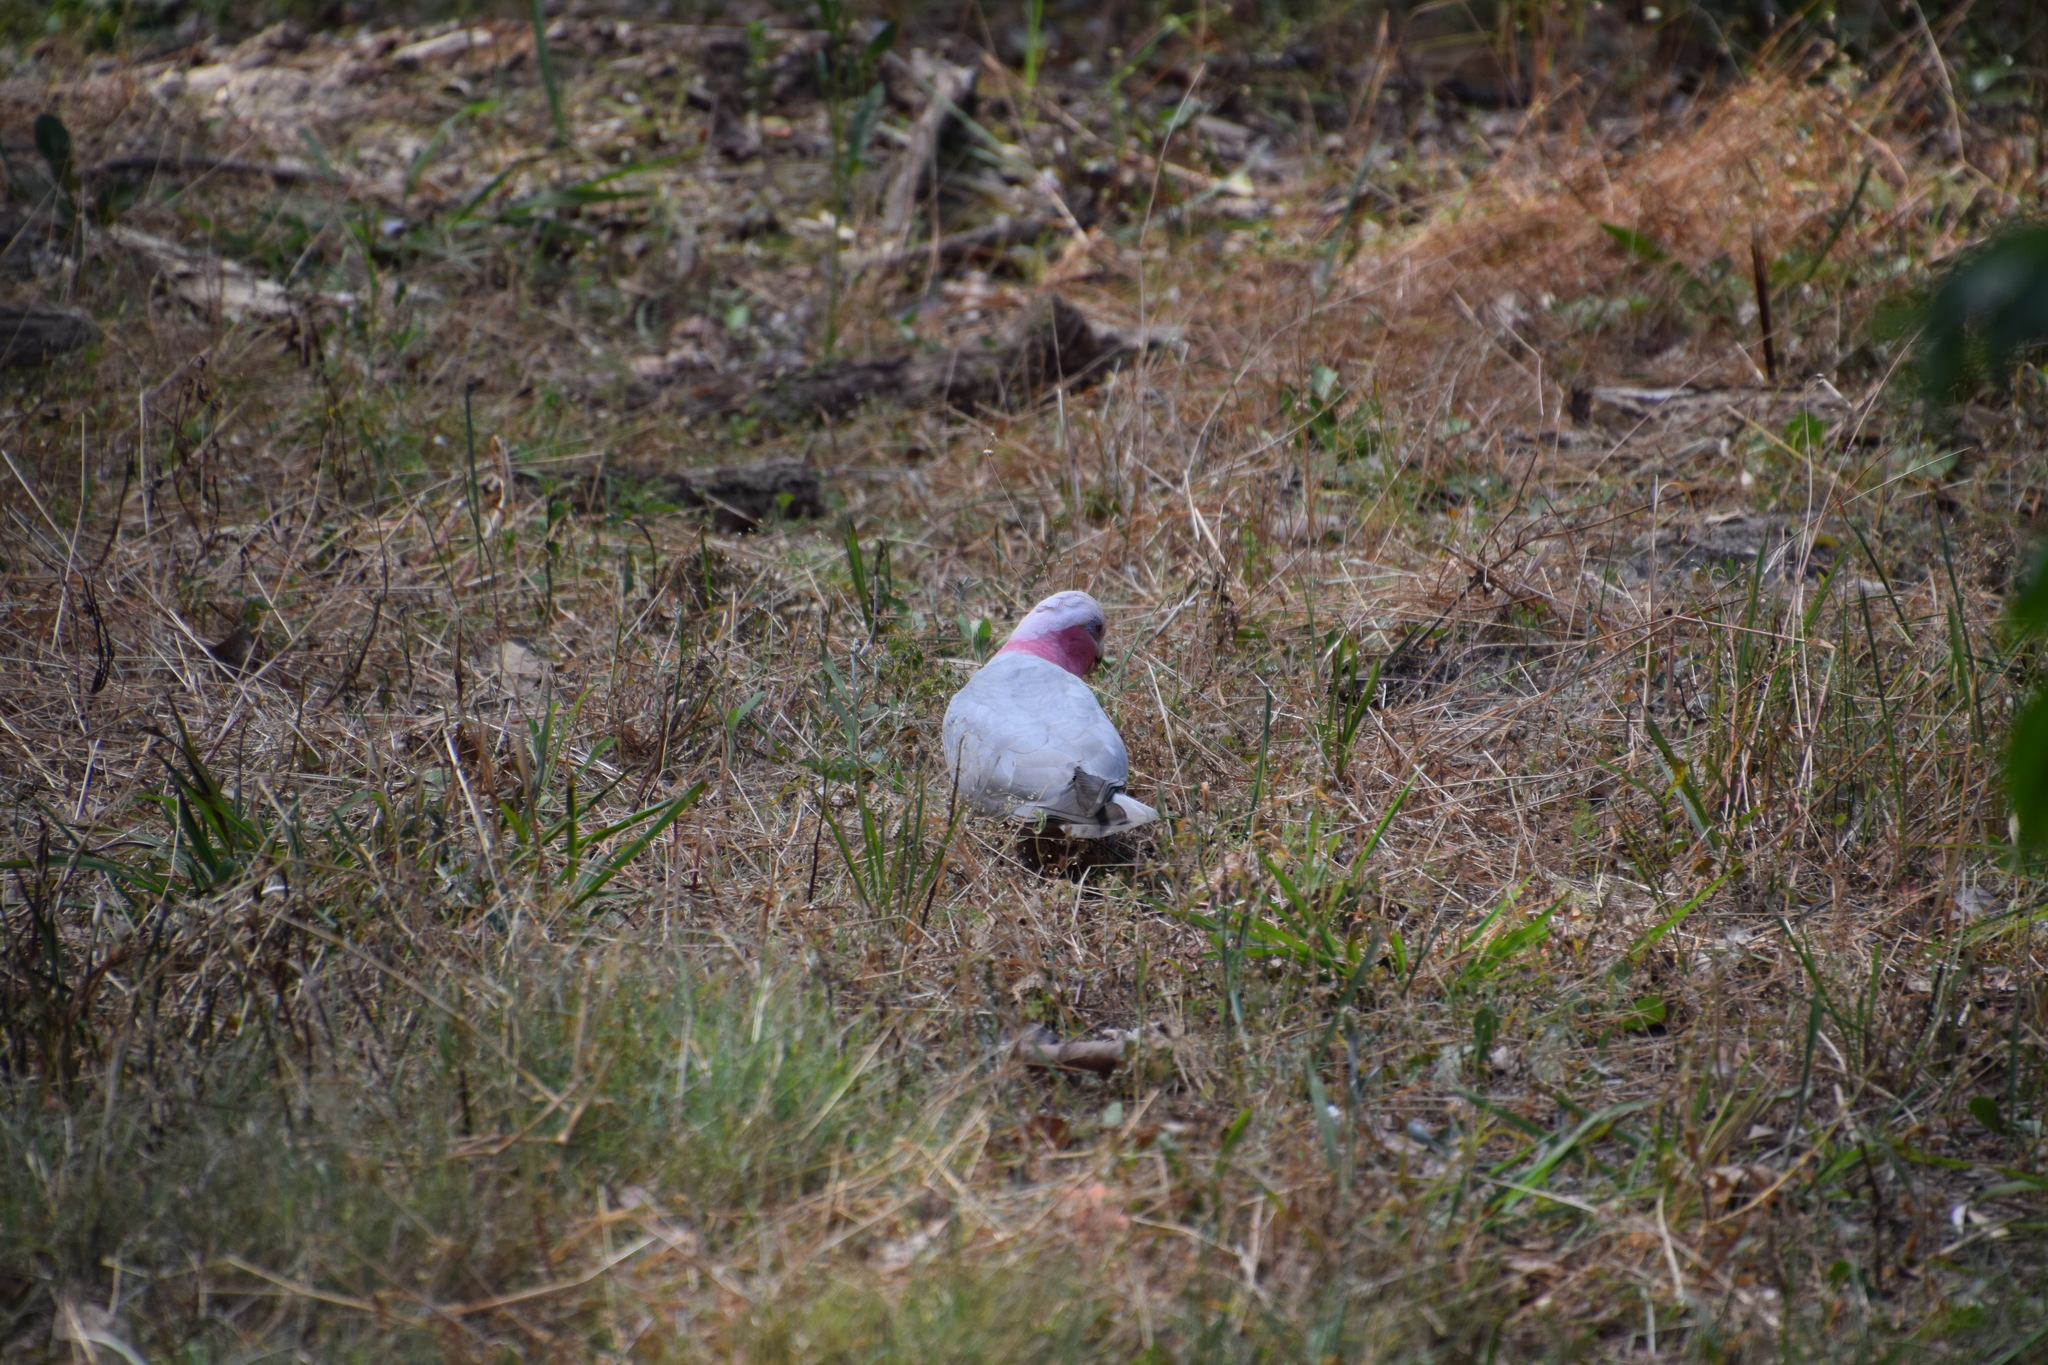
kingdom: Animalia
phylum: Chordata
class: Aves
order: Psittaciformes
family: Psittacidae
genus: Eolophus
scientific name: Eolophus roseicapilla
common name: Galah
